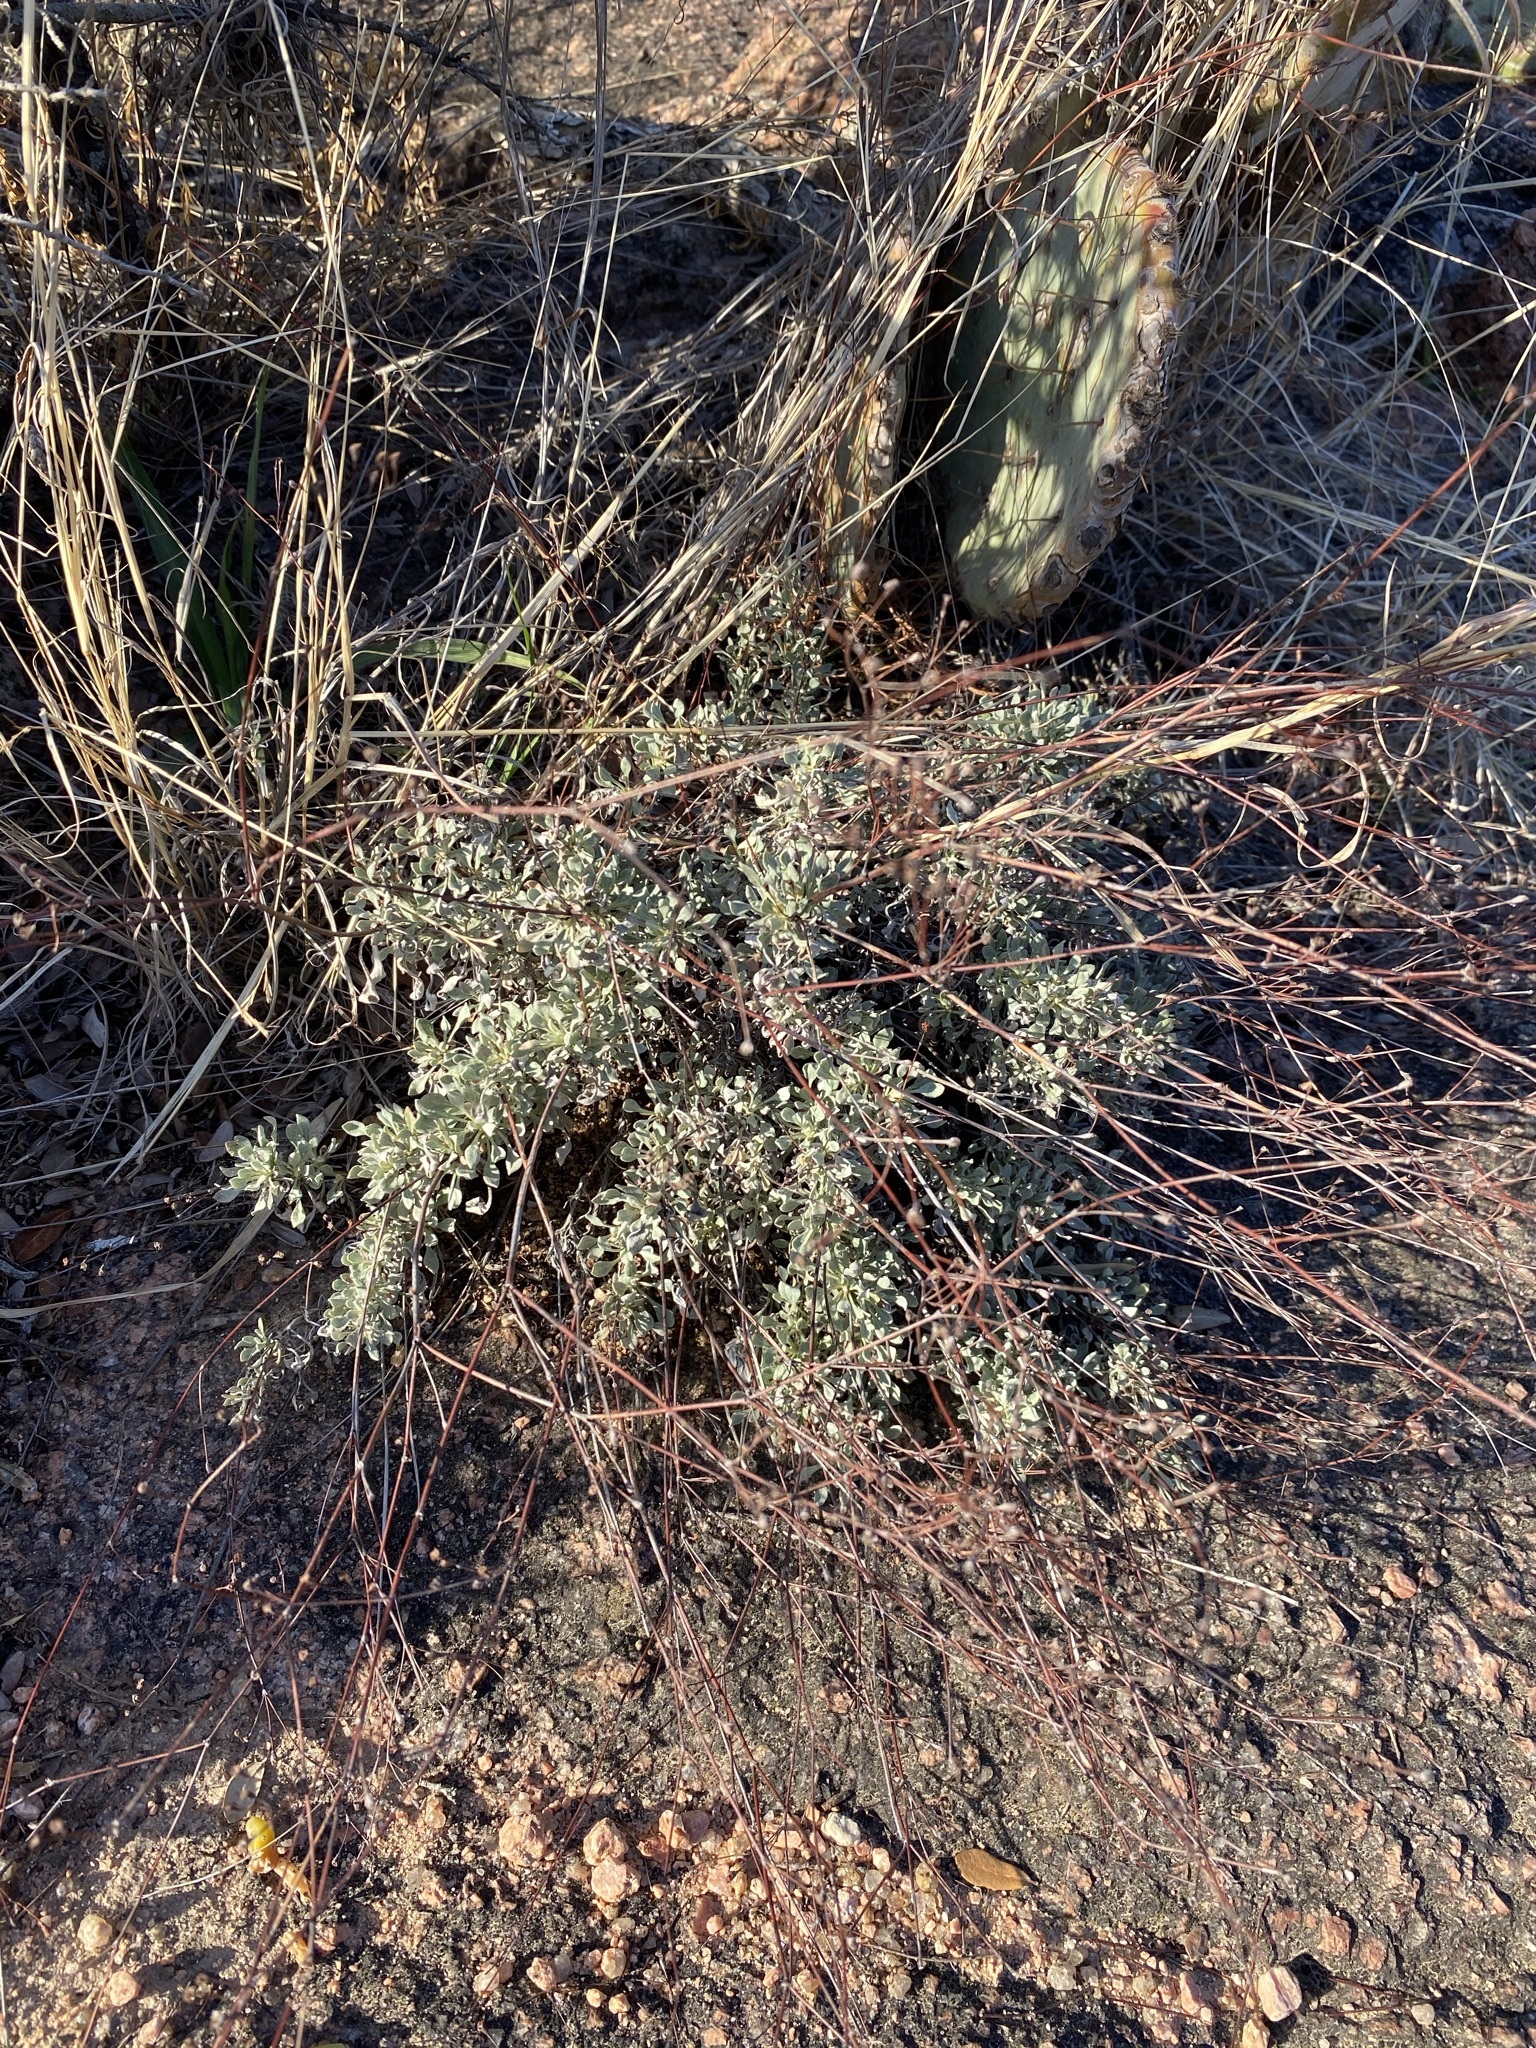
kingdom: Plantae
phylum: Tracheophyta
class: Magnoliopsida
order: Caryophyllales
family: Polygonaceae
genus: Eriogonum
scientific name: Eriogonum graniticum
